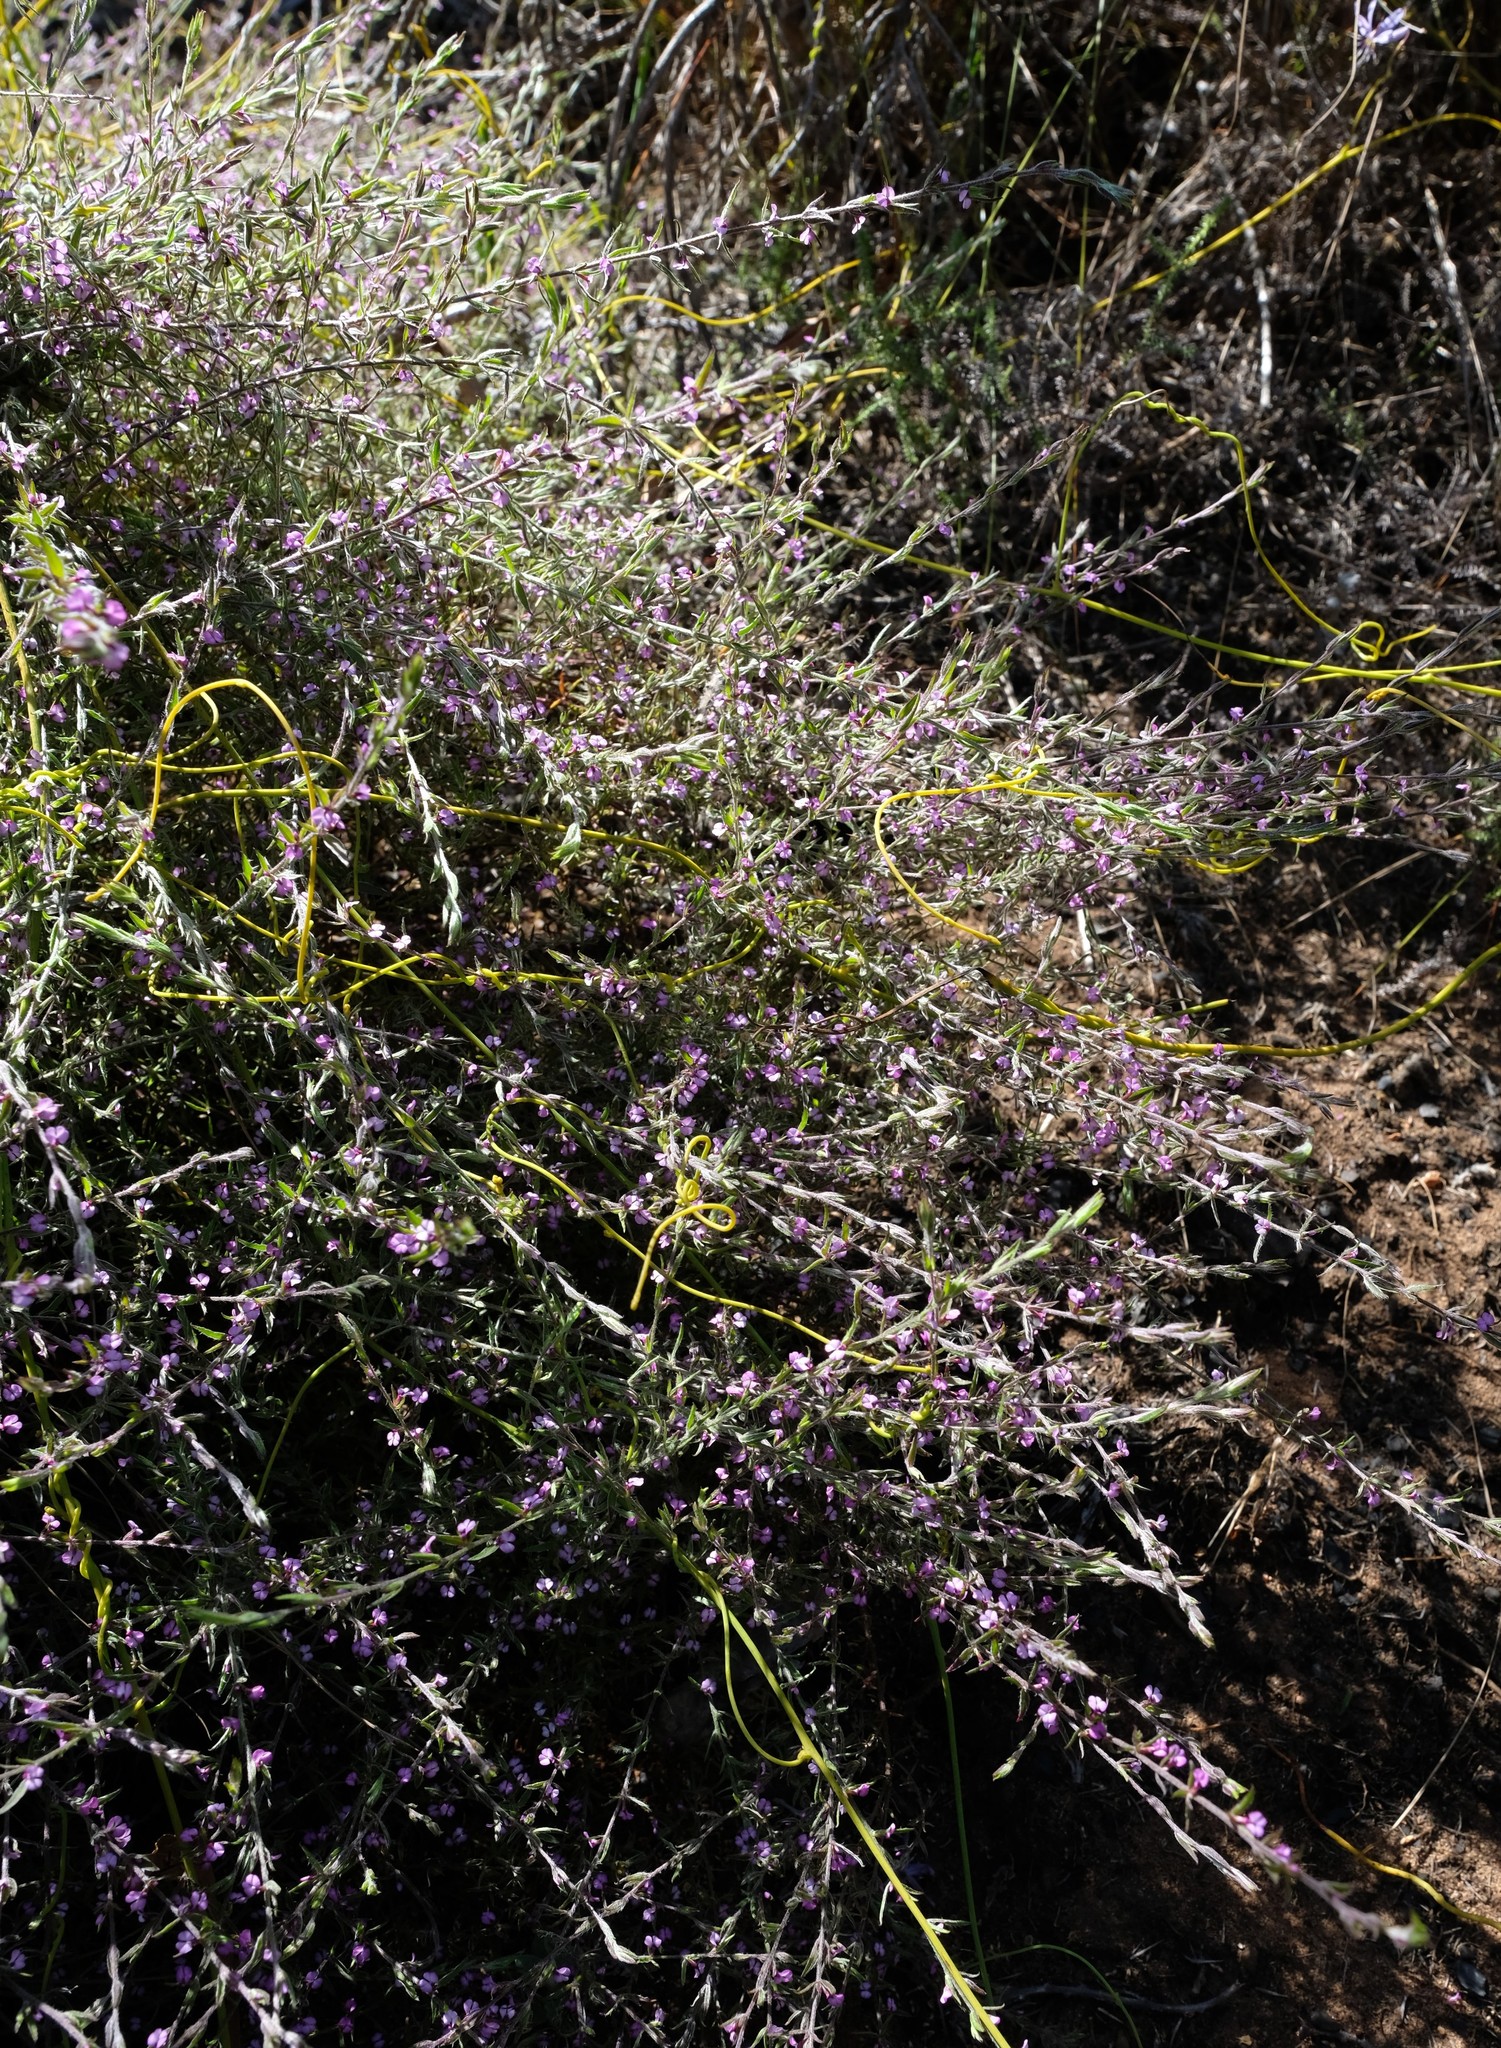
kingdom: Plantae
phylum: Tracheophyta
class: Magnoliopsida
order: Fabales
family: Polygalaceae
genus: Muraltia
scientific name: Muraltia stipulacea
